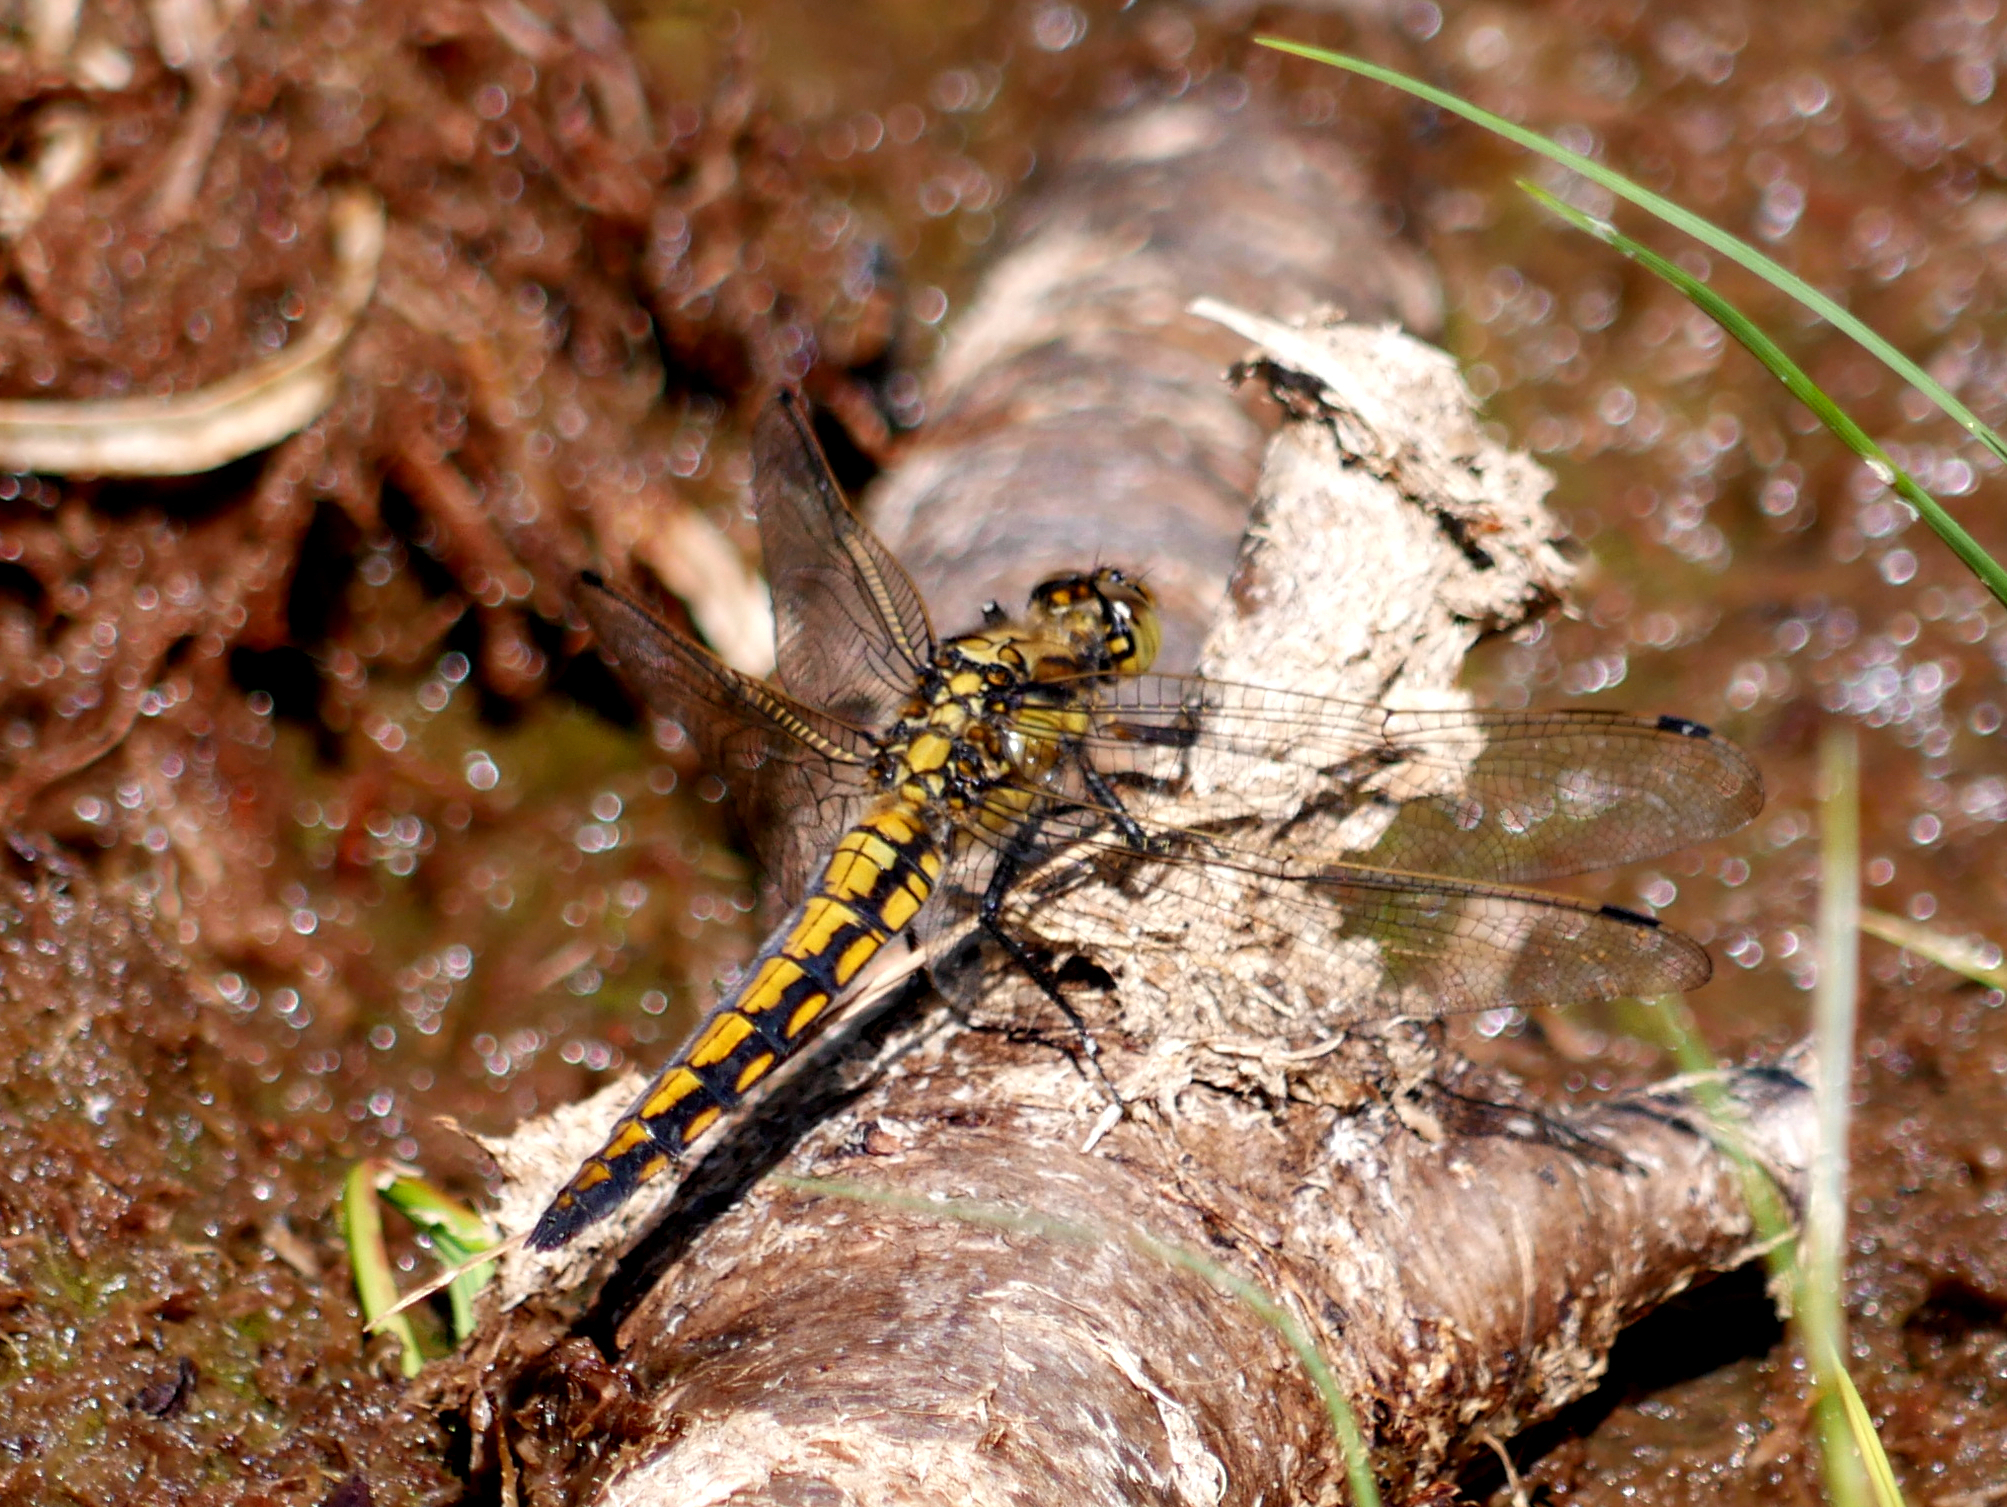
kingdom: Animalia
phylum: Arthropoda
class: Insecta
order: Odonata
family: Libellulidae
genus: Orthetrum
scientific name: Orthetrum cancellatum
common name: Black-tailed skimmer
